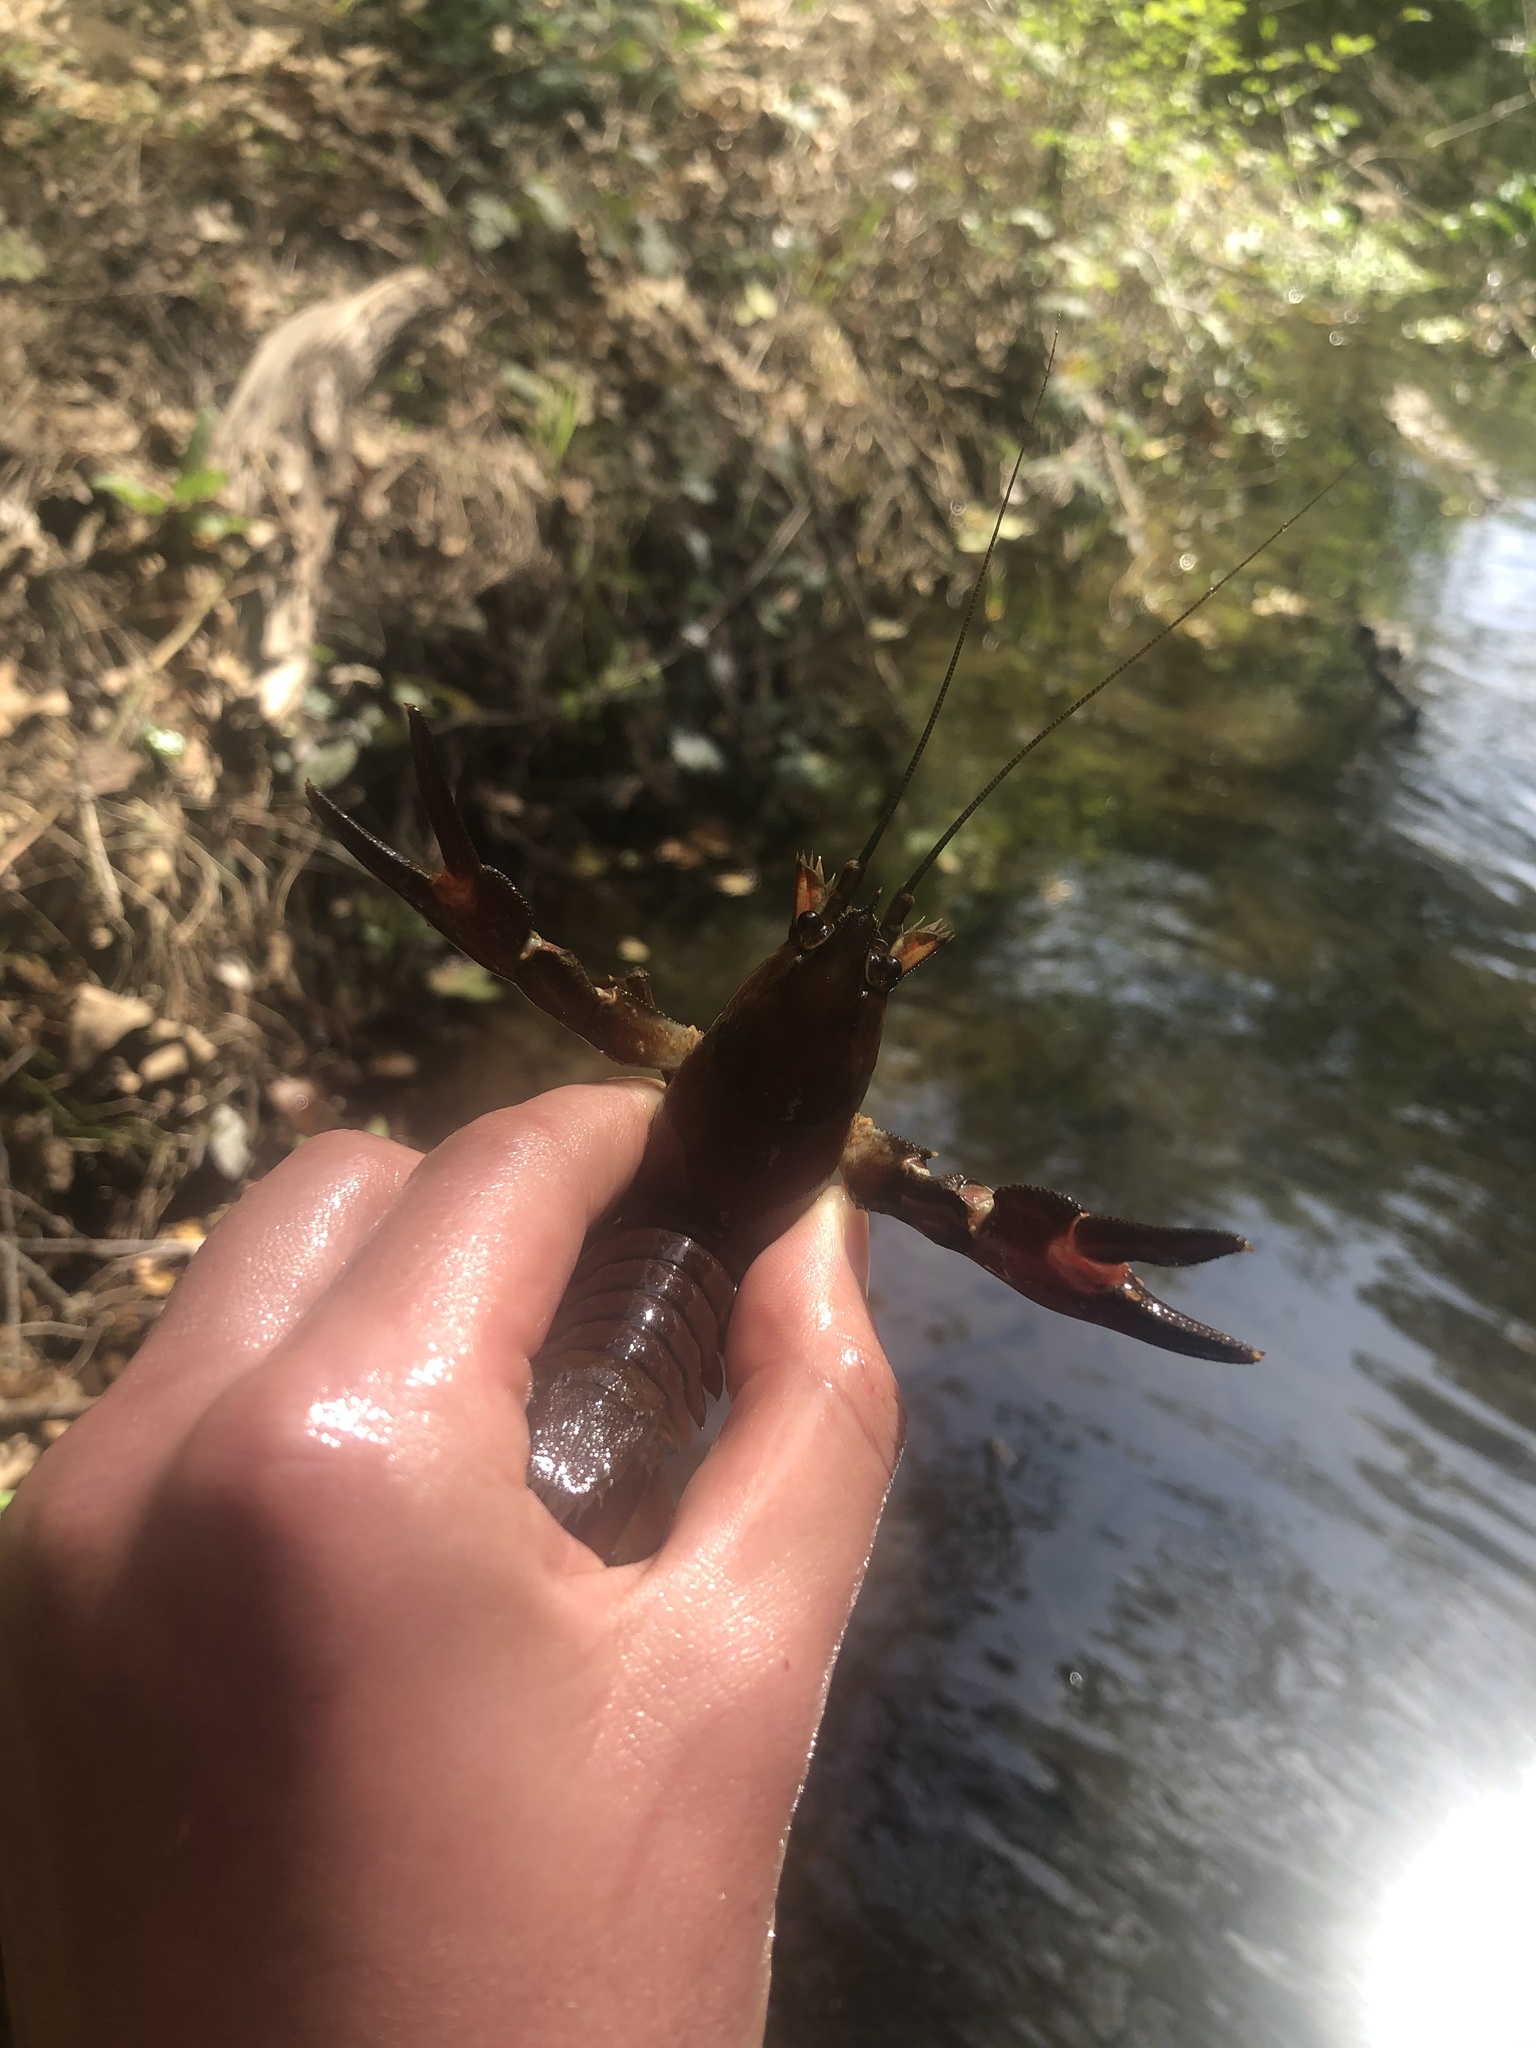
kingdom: Animalia
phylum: Arthropoda
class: Malacostraca
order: Decapoda
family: Astacidae
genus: Pacifastacus
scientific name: Pacifastacus leniusculus
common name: Signal crayfish
